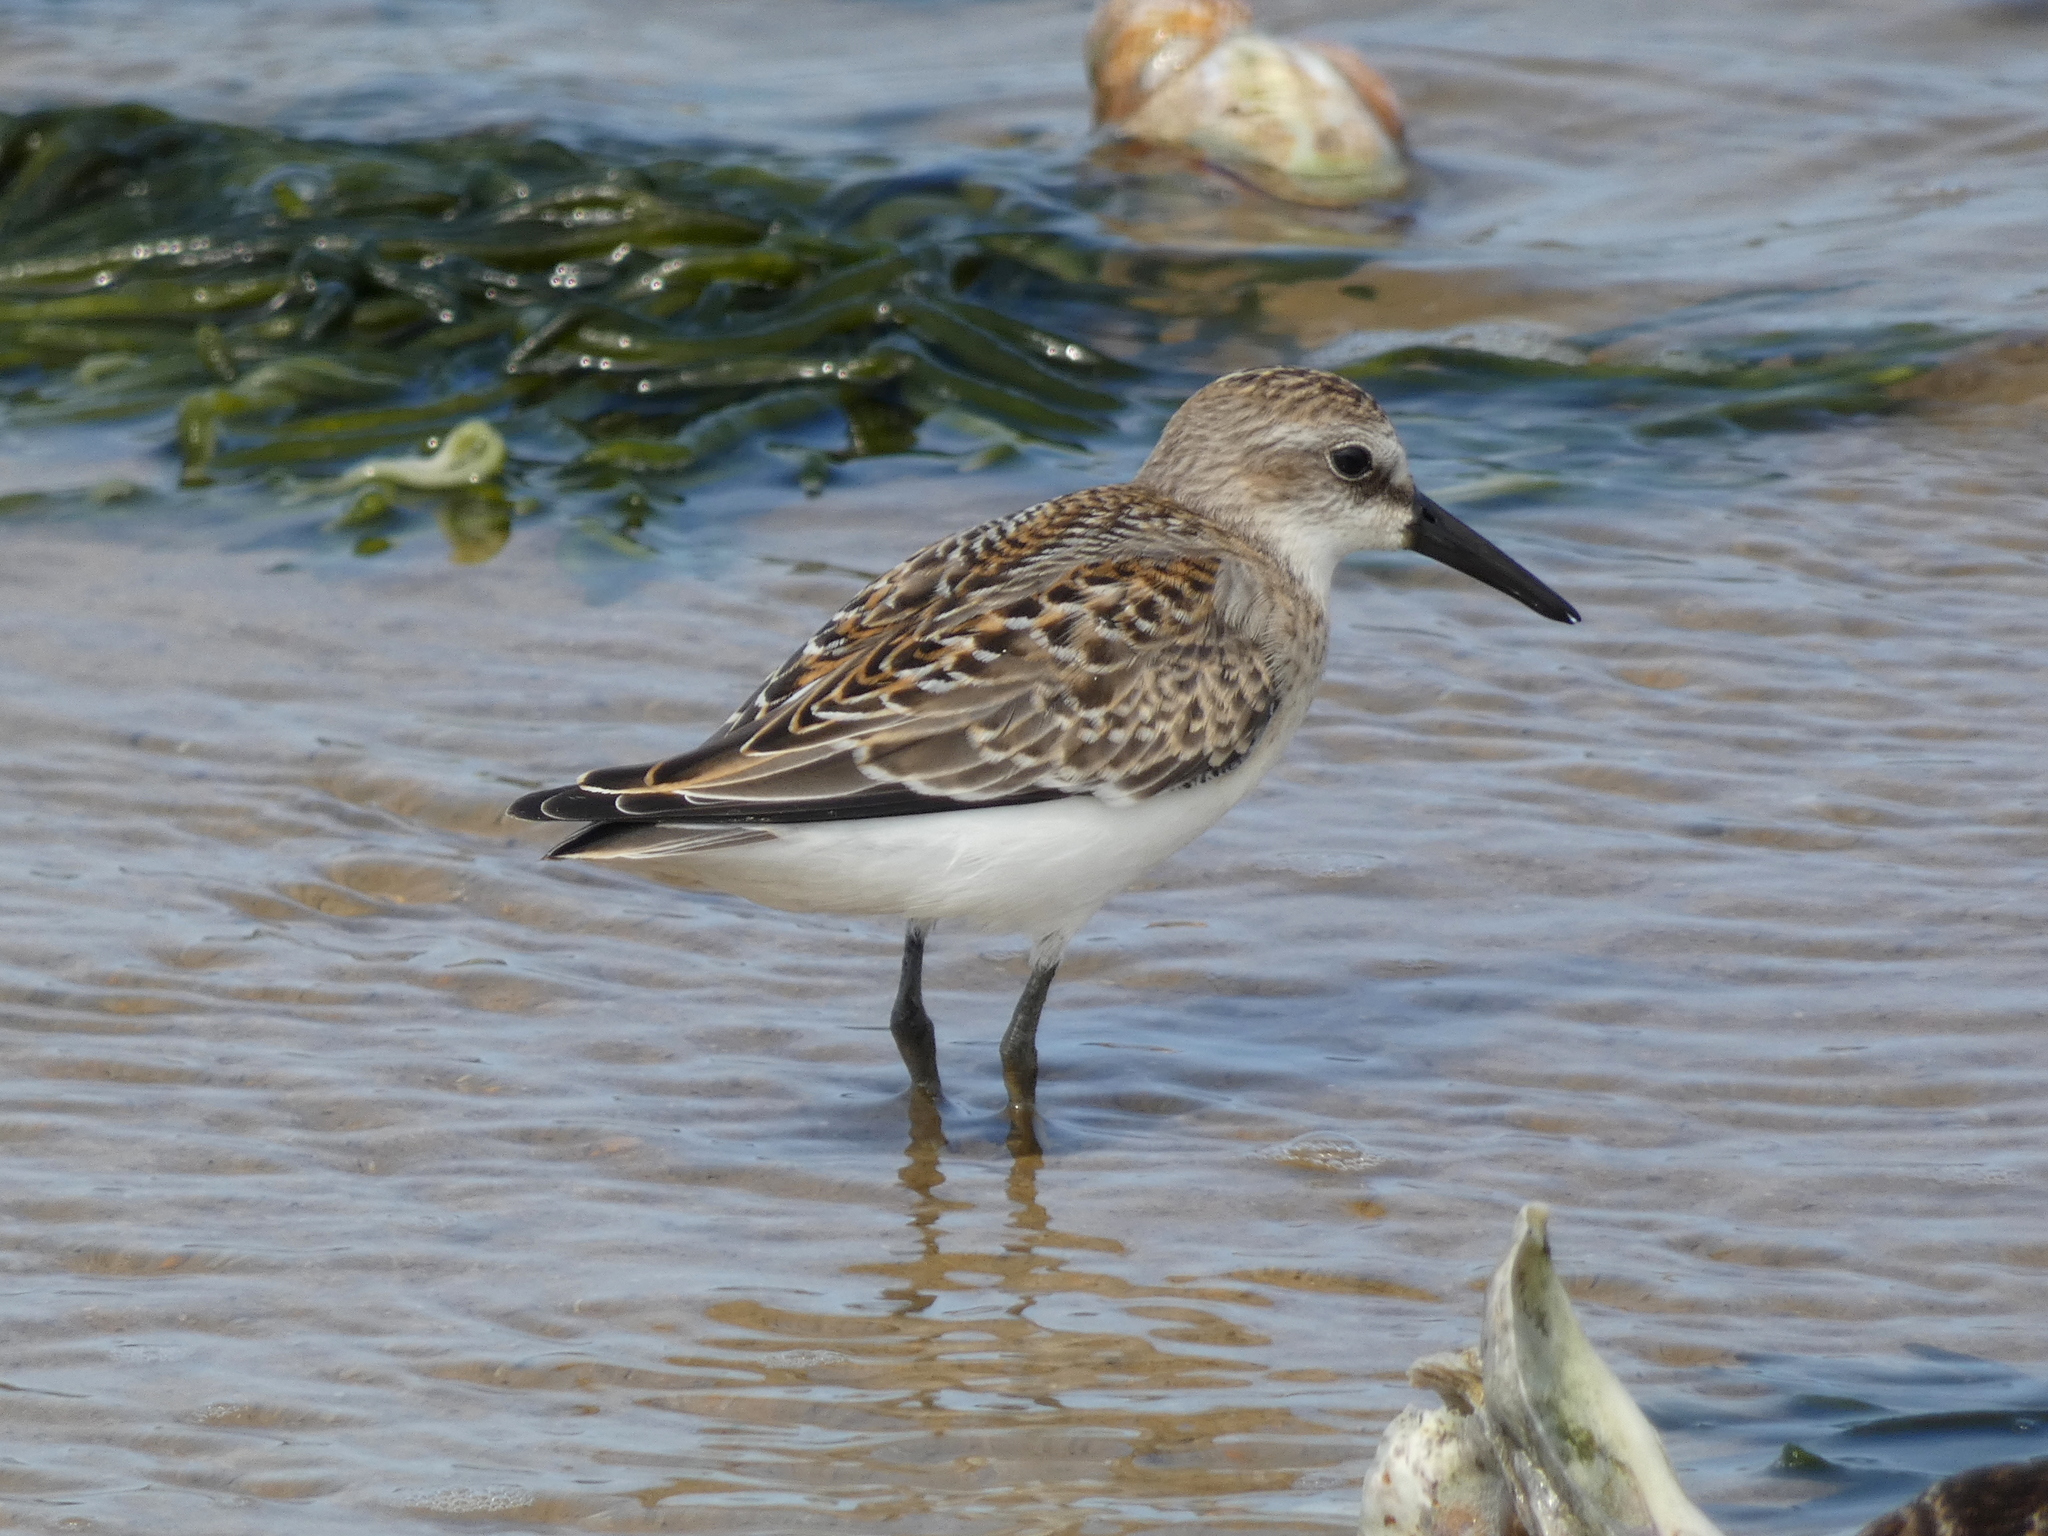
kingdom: Animalia
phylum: Chordata
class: Aves
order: Charadriiformes
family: Scolopacidae
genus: Calidris
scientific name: Calidris pusilla
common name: Semipalmated sandpiper
